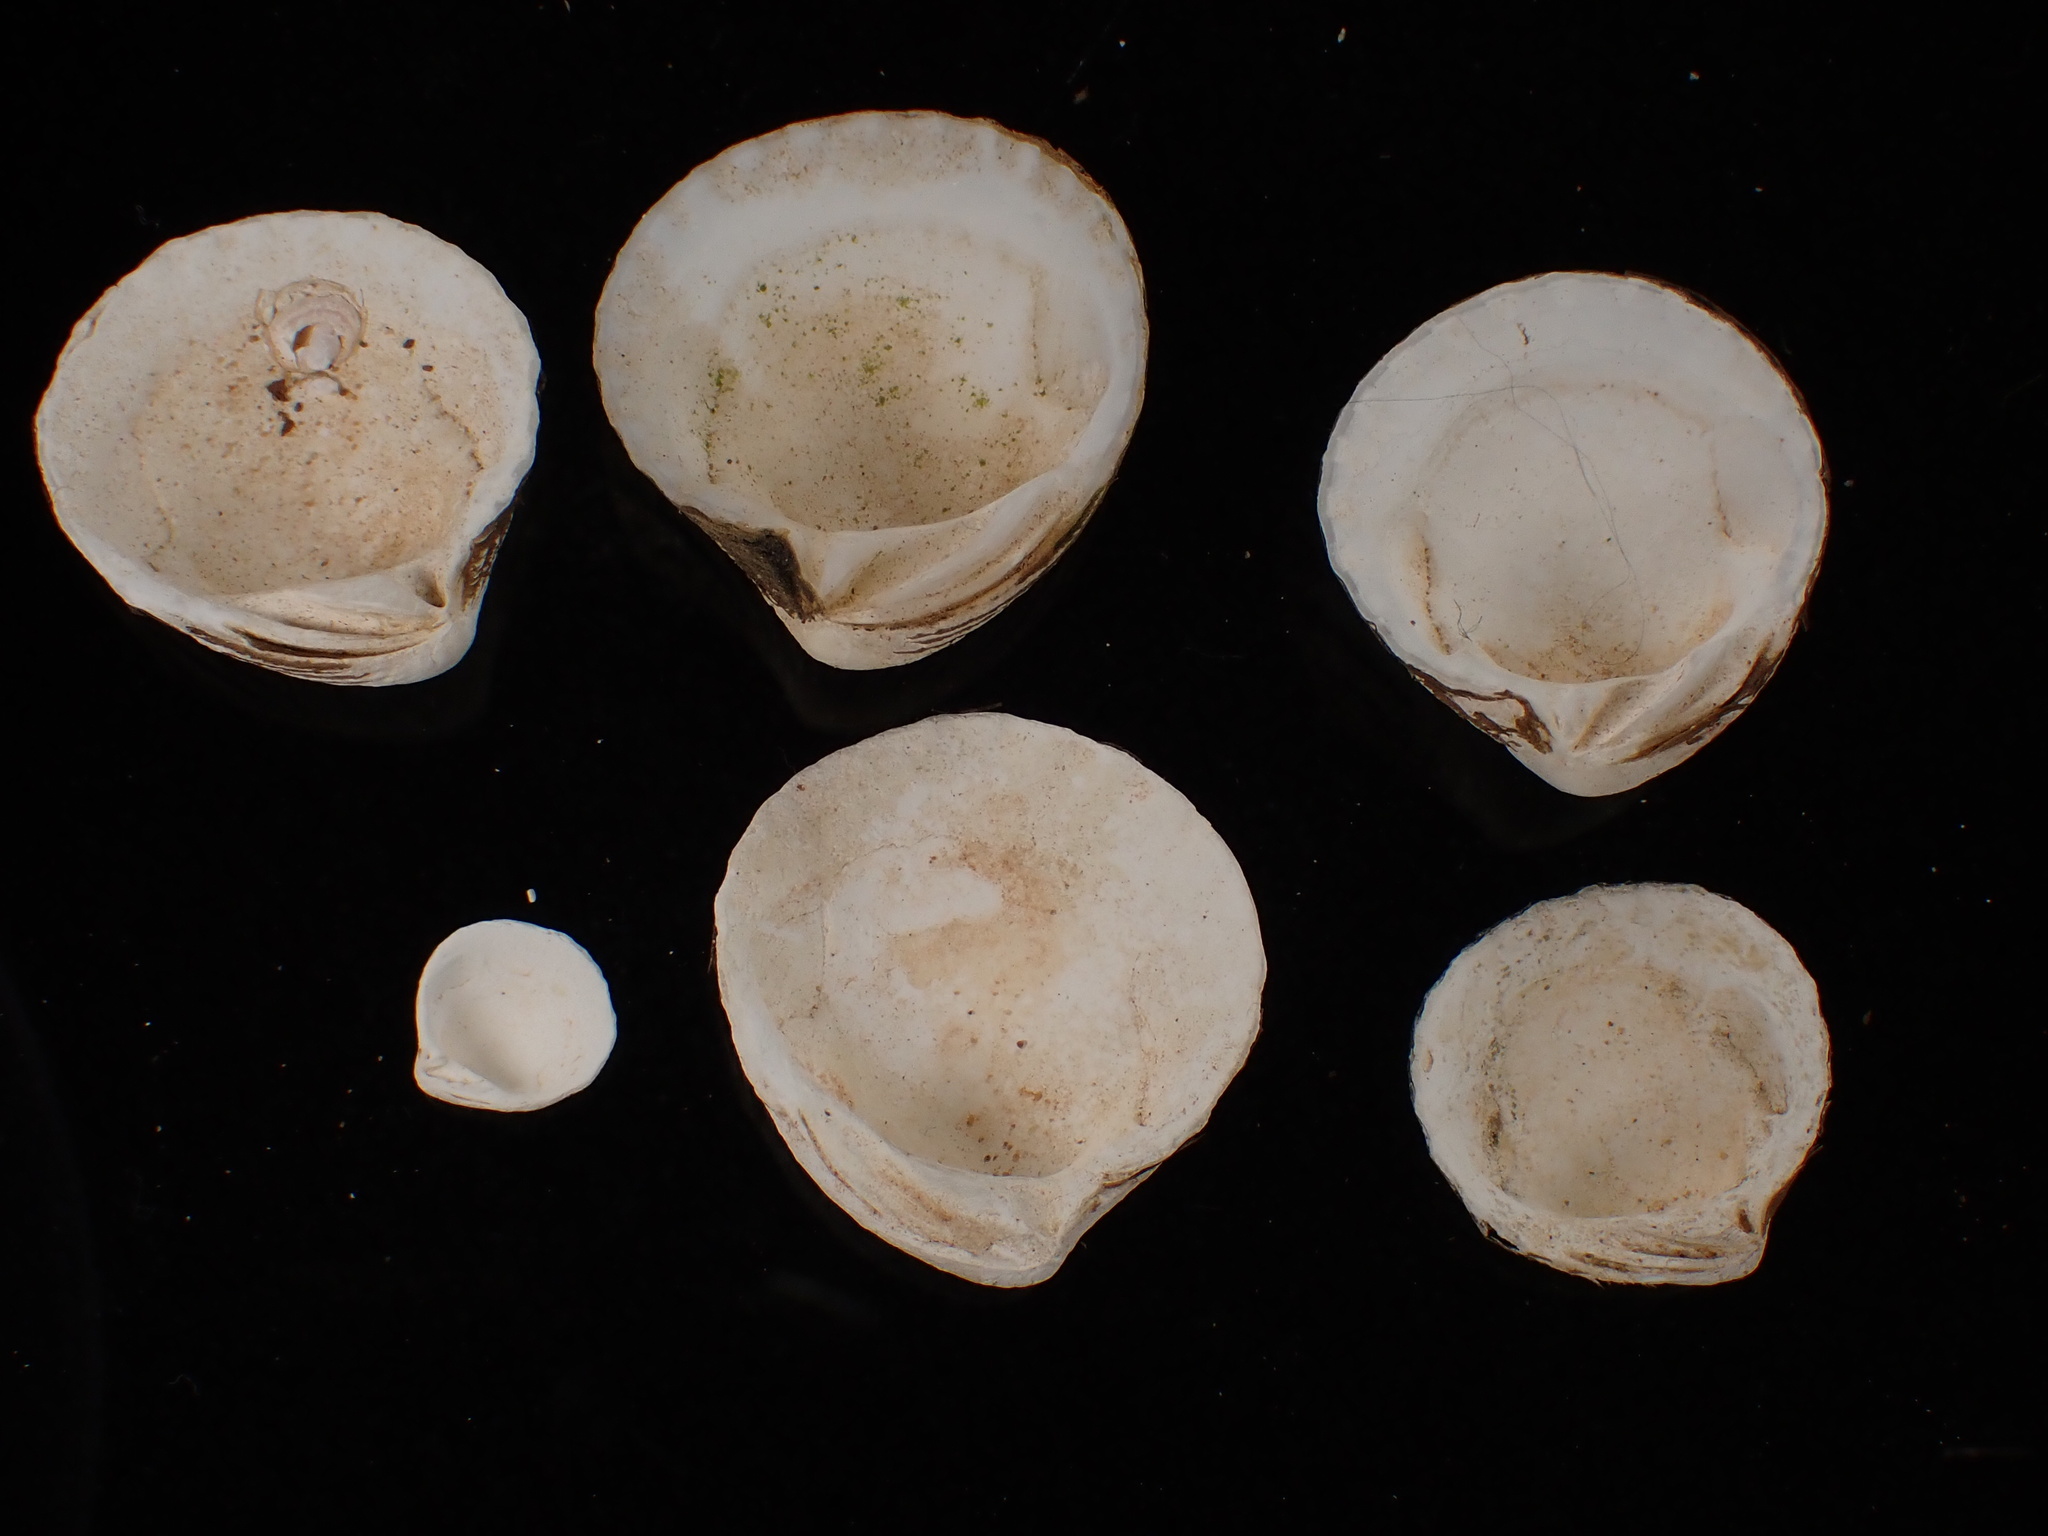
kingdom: Animalia
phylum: Mollusca
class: Bivalvia
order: Carditida
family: Carditidae
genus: Cyclocardia
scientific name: Cyclocardia borealis
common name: Northern cyclocardia
